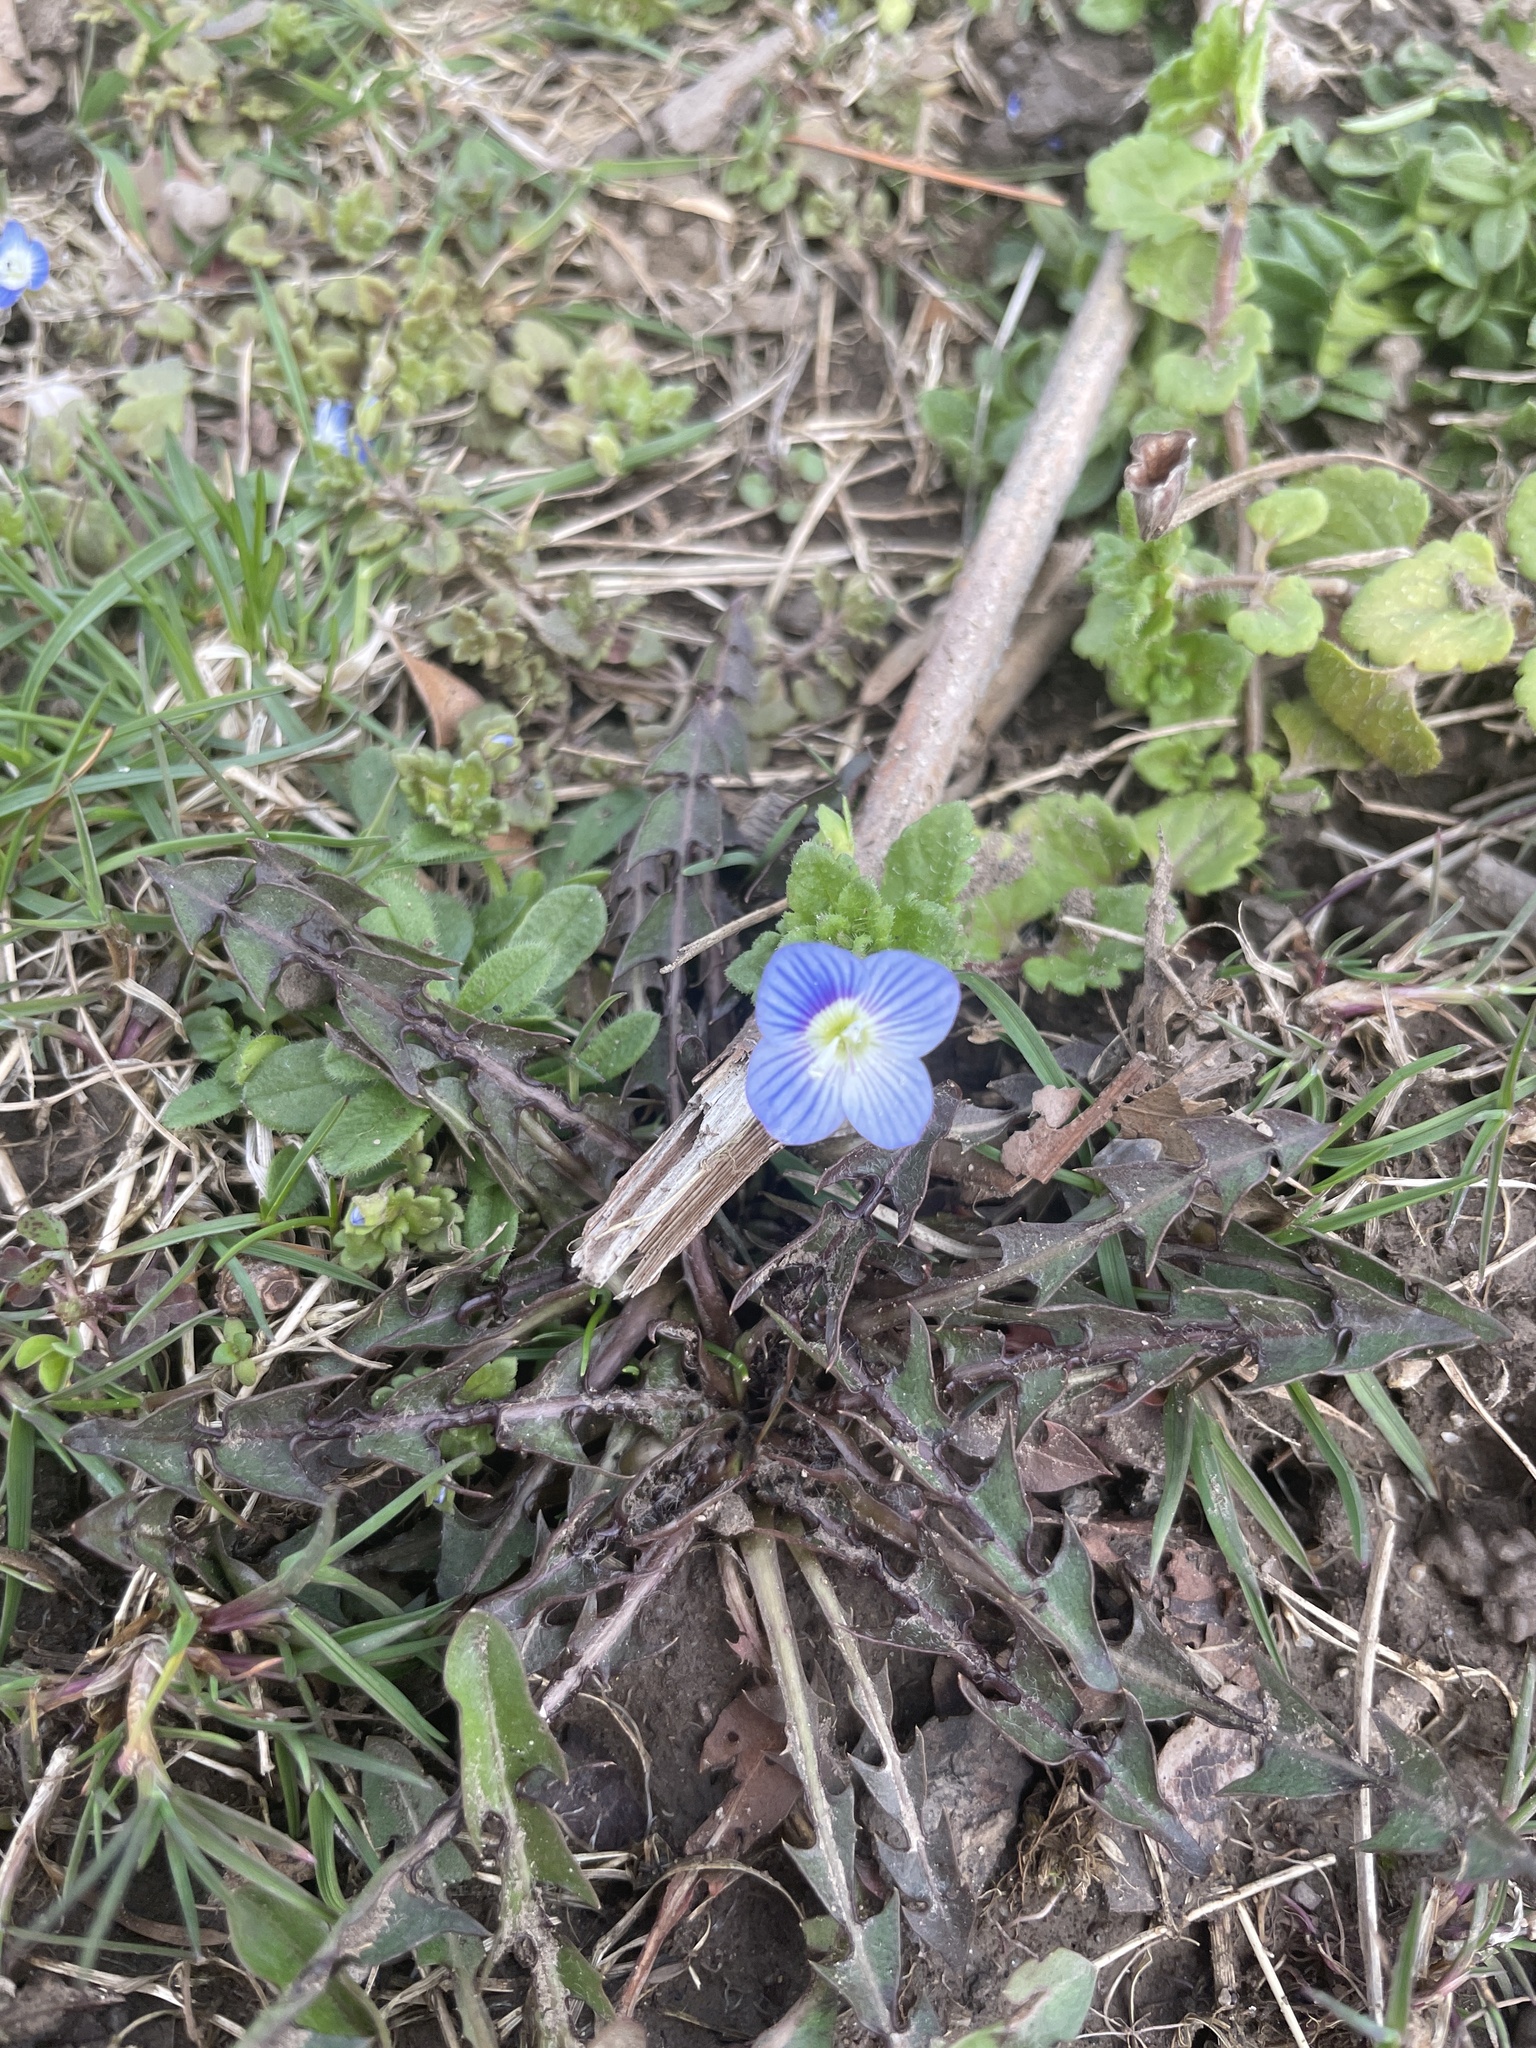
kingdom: Plantae
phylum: Tracheophyta
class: Magnoliopsida
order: Lamiales
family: Plantaginaceae
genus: Veronica
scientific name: Veronica persica
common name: Common field-speedwell
